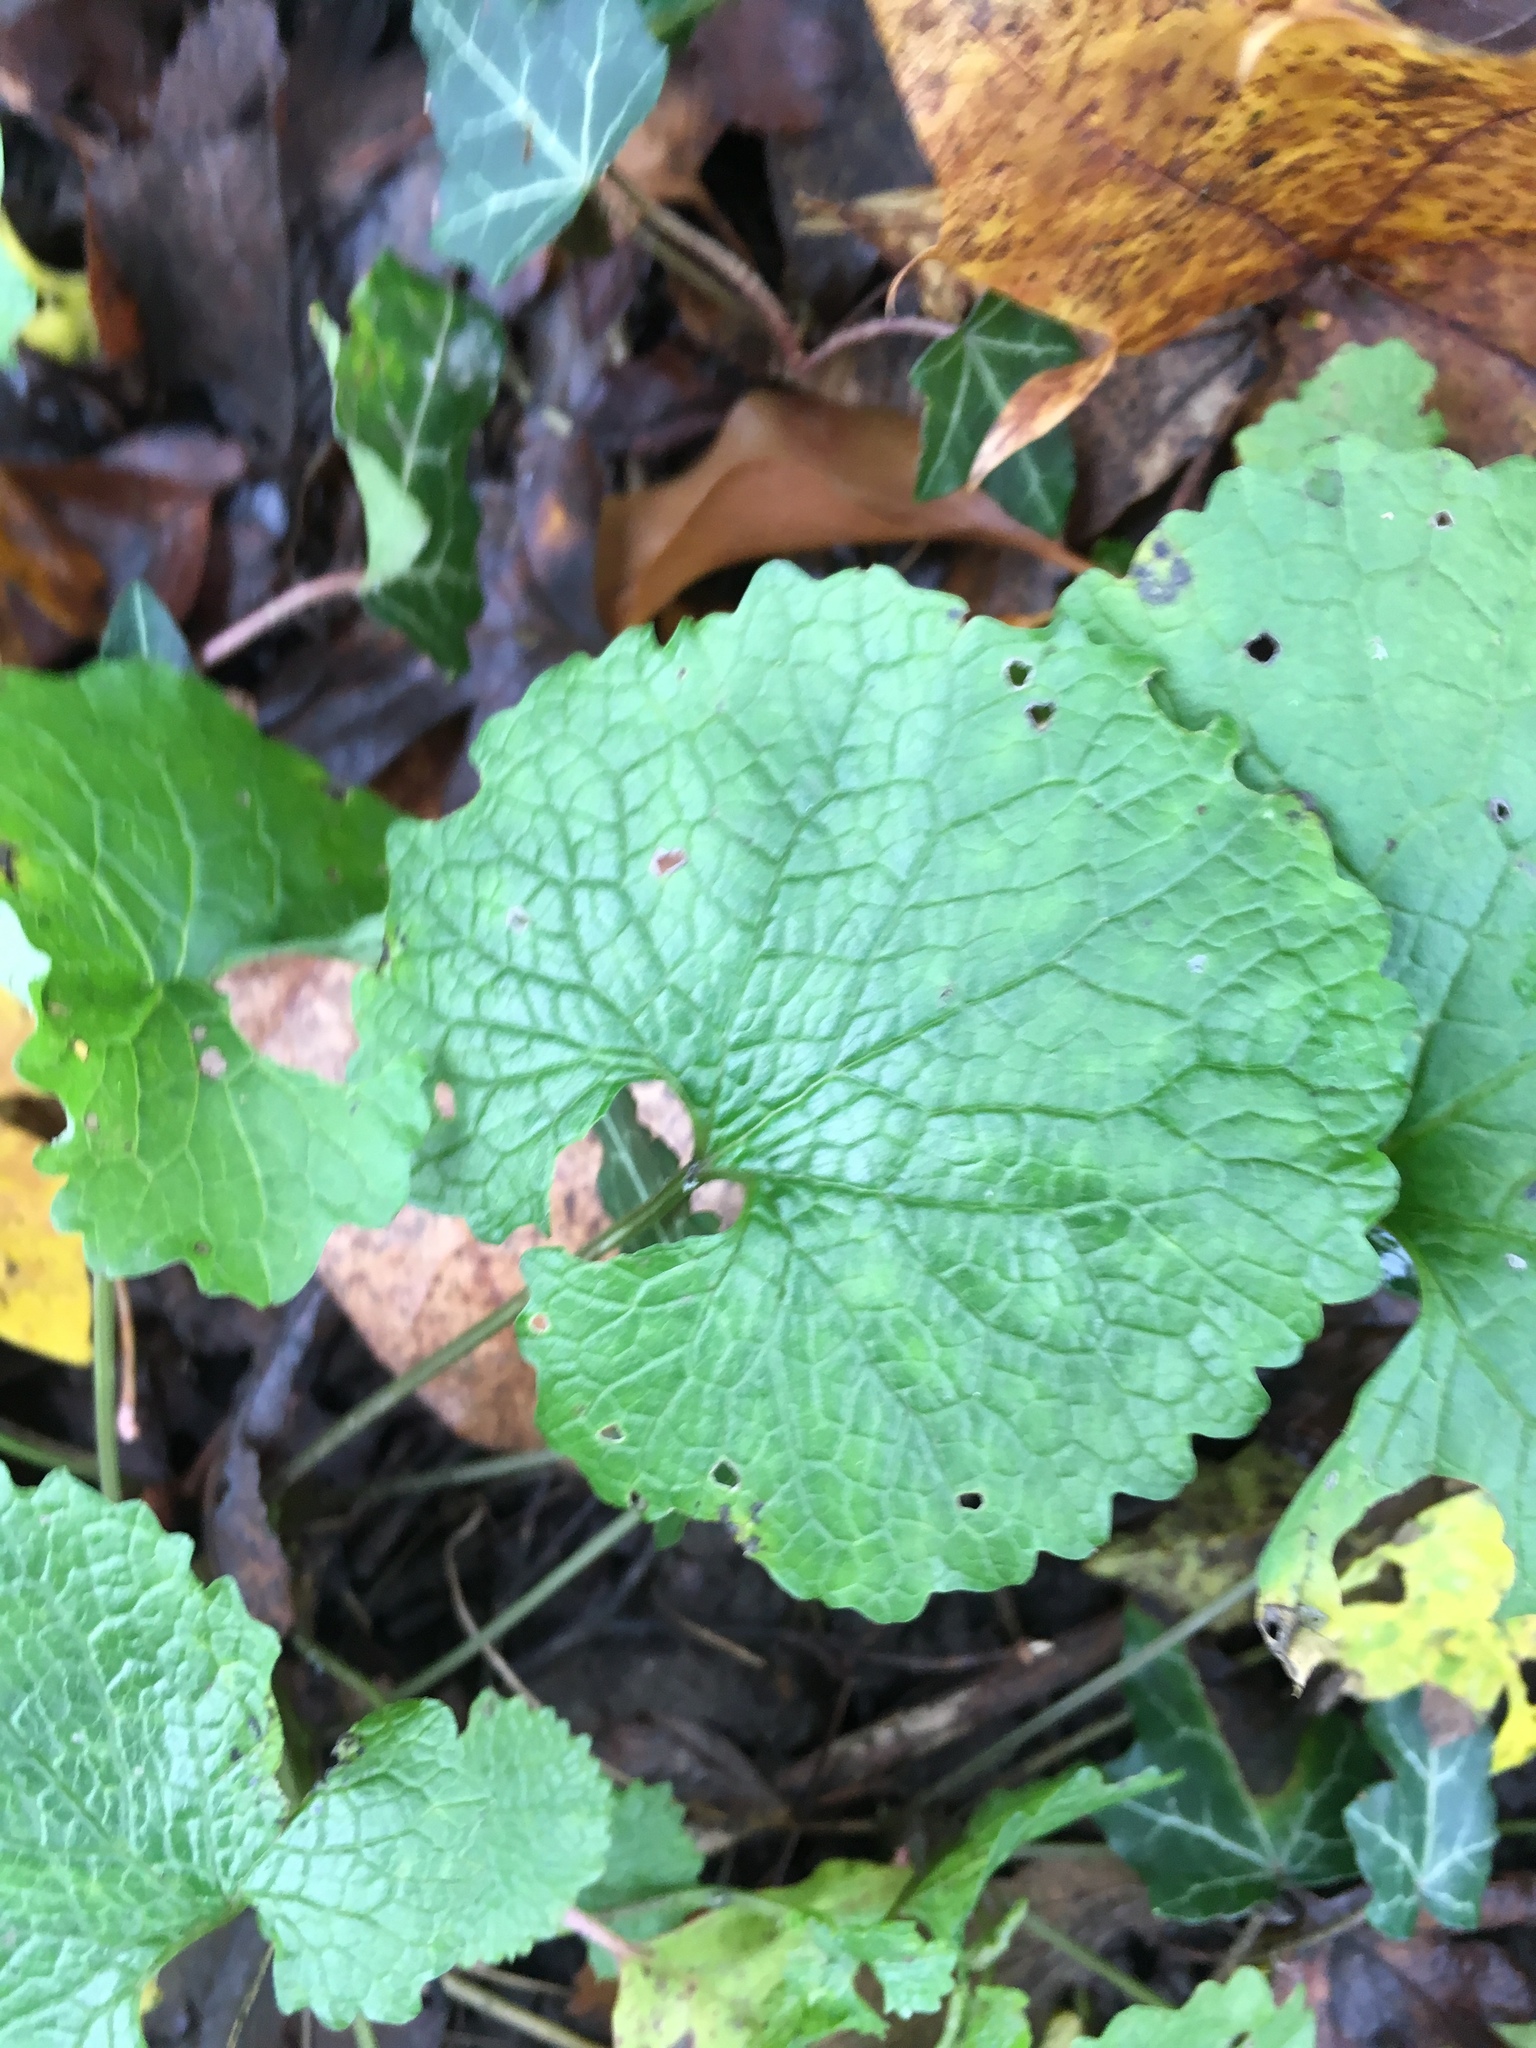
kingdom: Plantae
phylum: Tracheophyta
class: Magnoliopsida
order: Brassicales
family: Brassicaceae
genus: Alliaria
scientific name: Alliaria petiolata
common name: Garlic mustard
